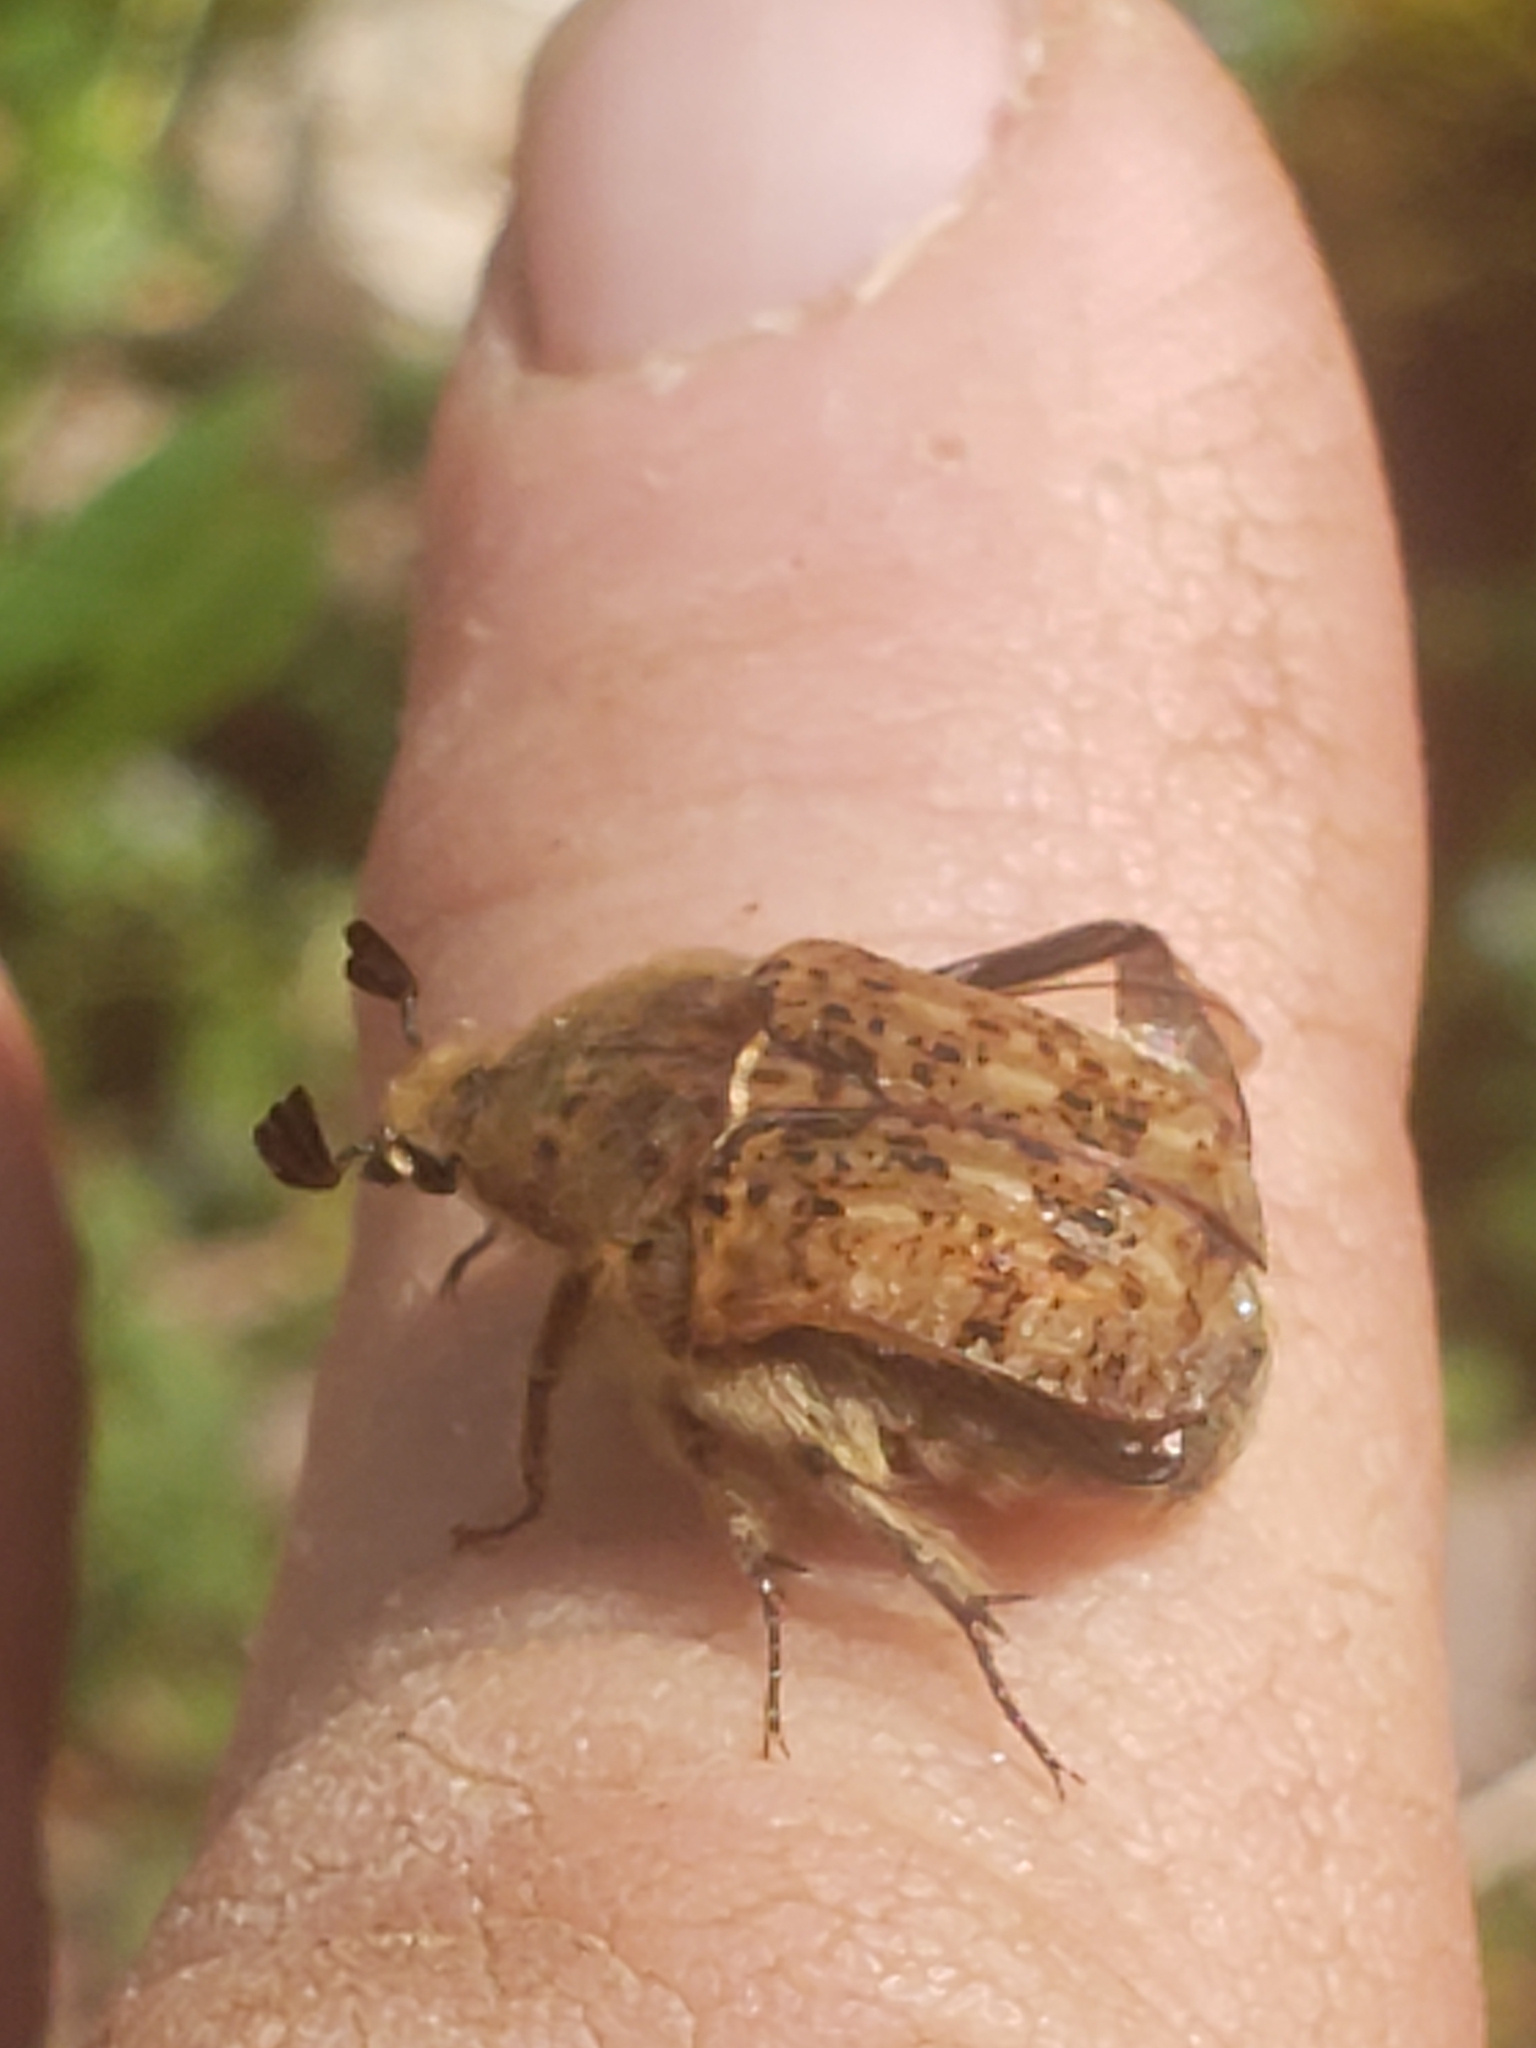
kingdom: Animalia
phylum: Arthropoda
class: Insecta
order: Coleoptera
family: Scarabaeidae
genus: Euphoria
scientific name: Euphoria inda
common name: Bumble flower beetle
